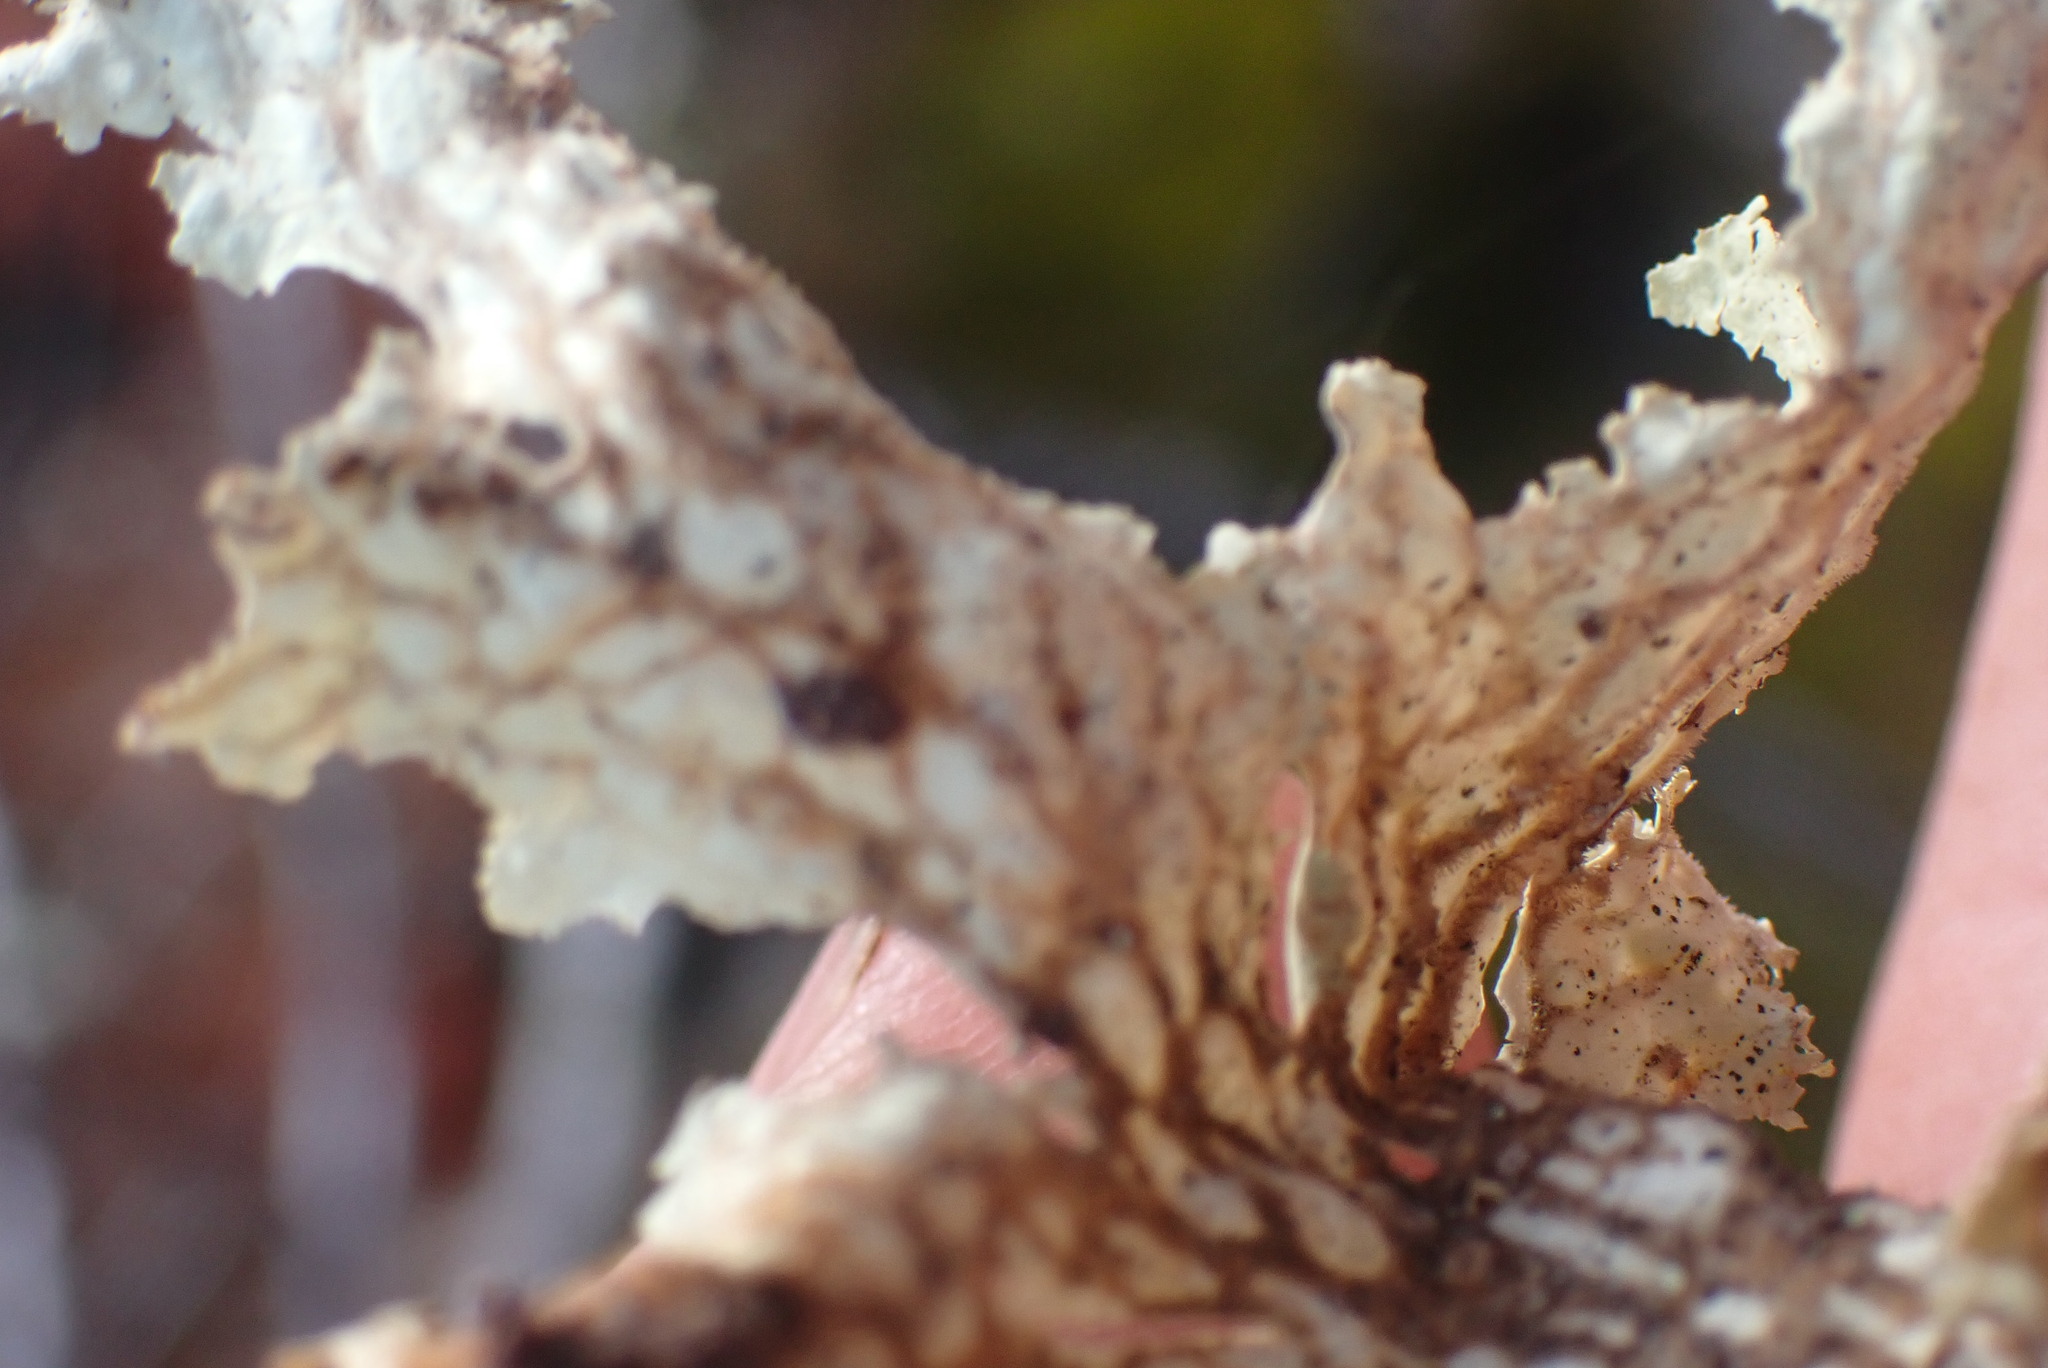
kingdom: Fungi
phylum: Ascomycota
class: Lecanoromycetes
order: Peltigerales
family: Lobariaceae
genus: Lobaria
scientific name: Lobaria oregana
